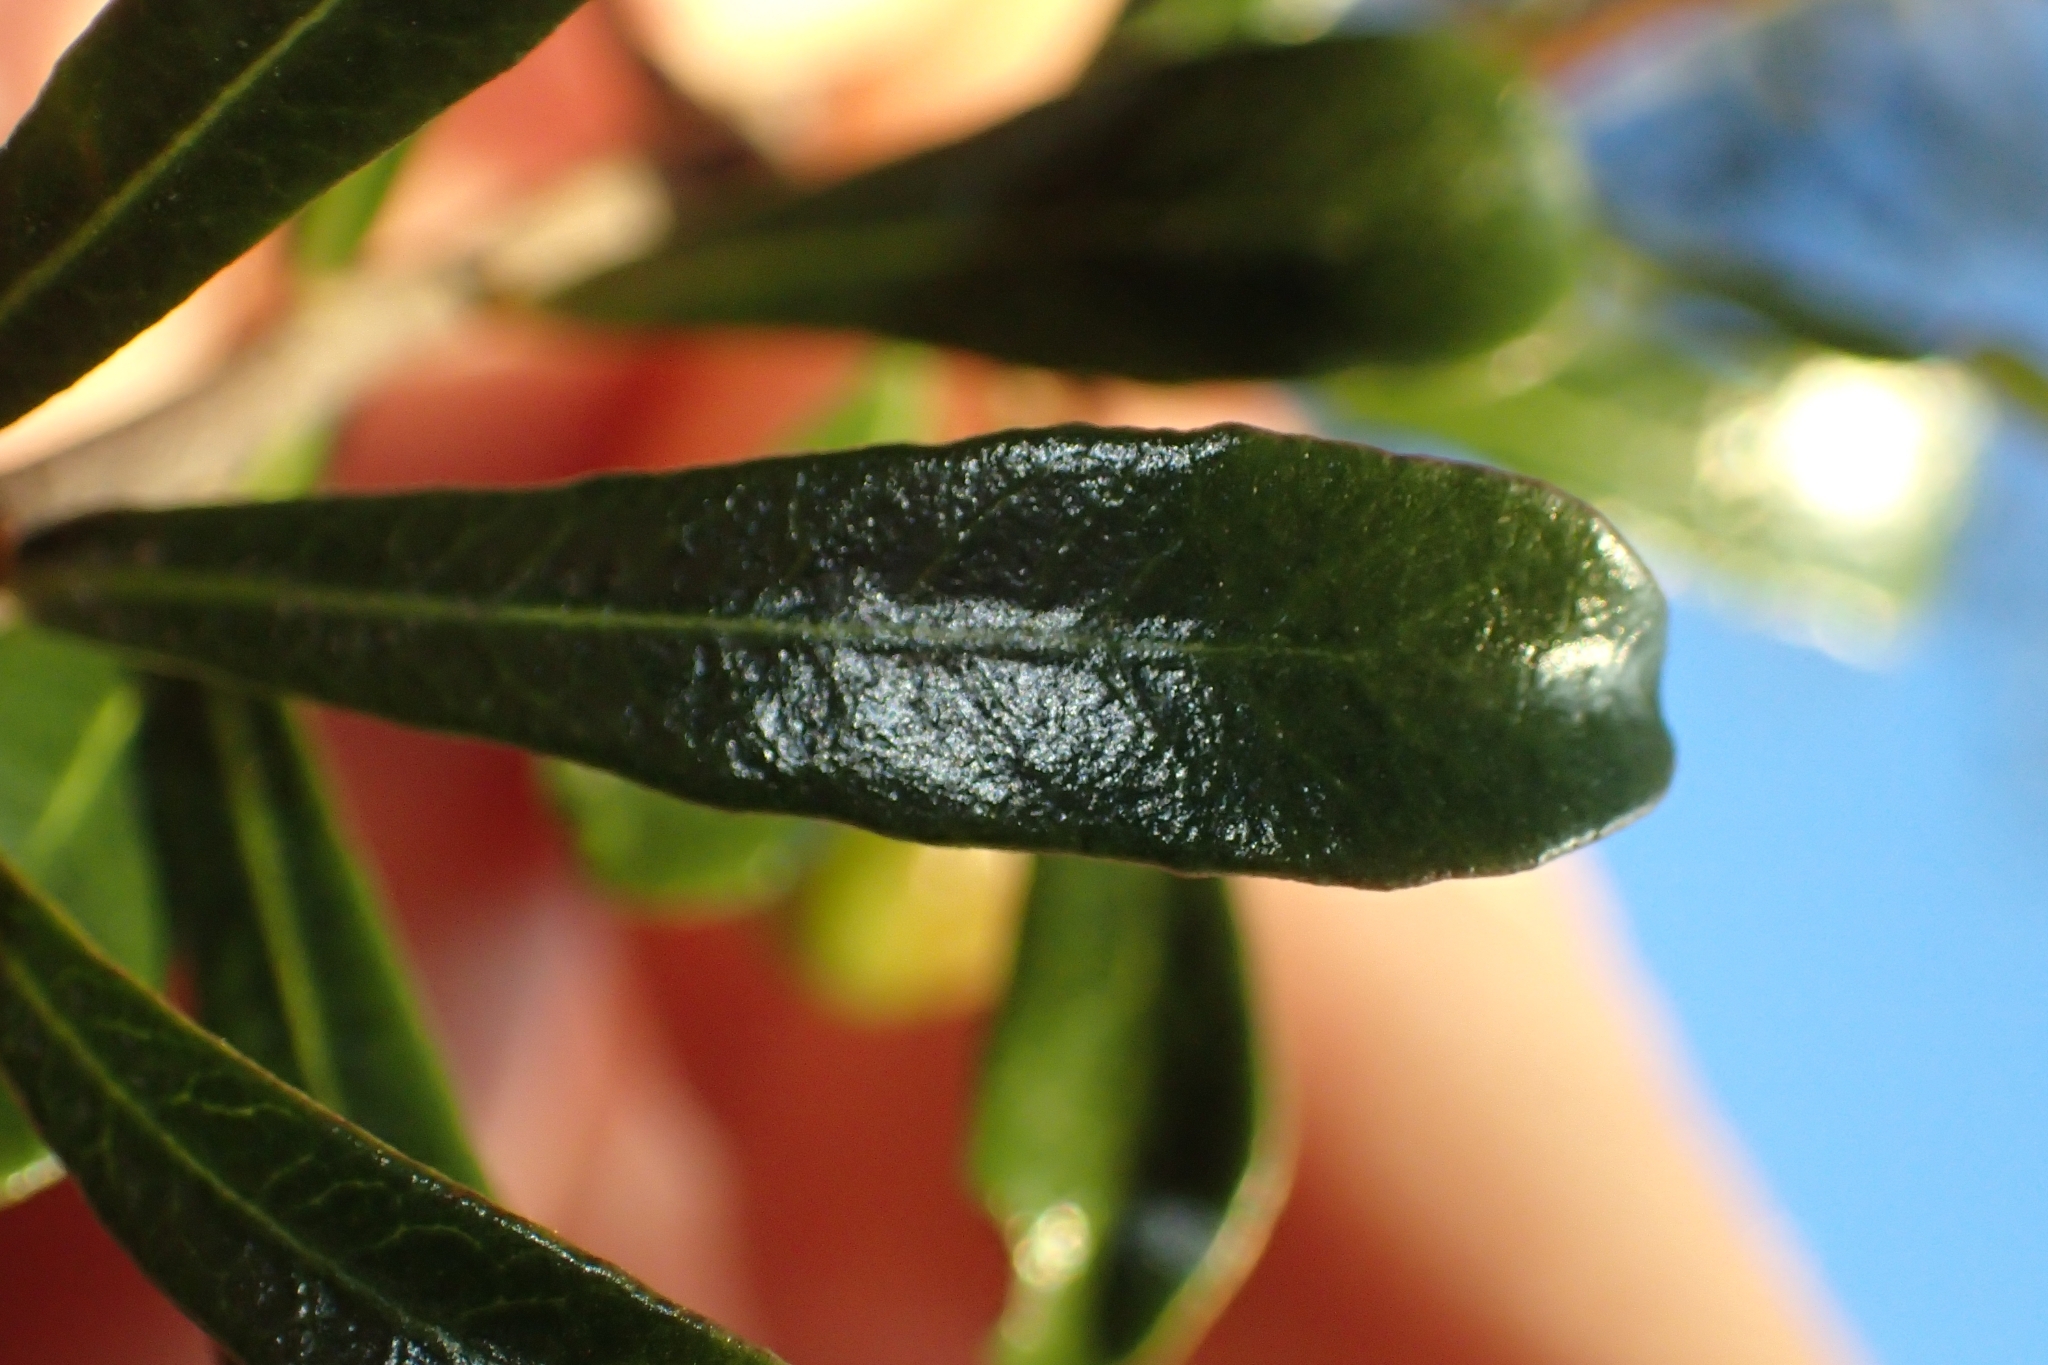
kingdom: Plantae
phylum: Tracheophyta
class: Magnoliopsida
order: Apiales
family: Pittosporaceae
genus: Pittosporum
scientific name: Pittosporum turneri
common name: Tent pole tree
